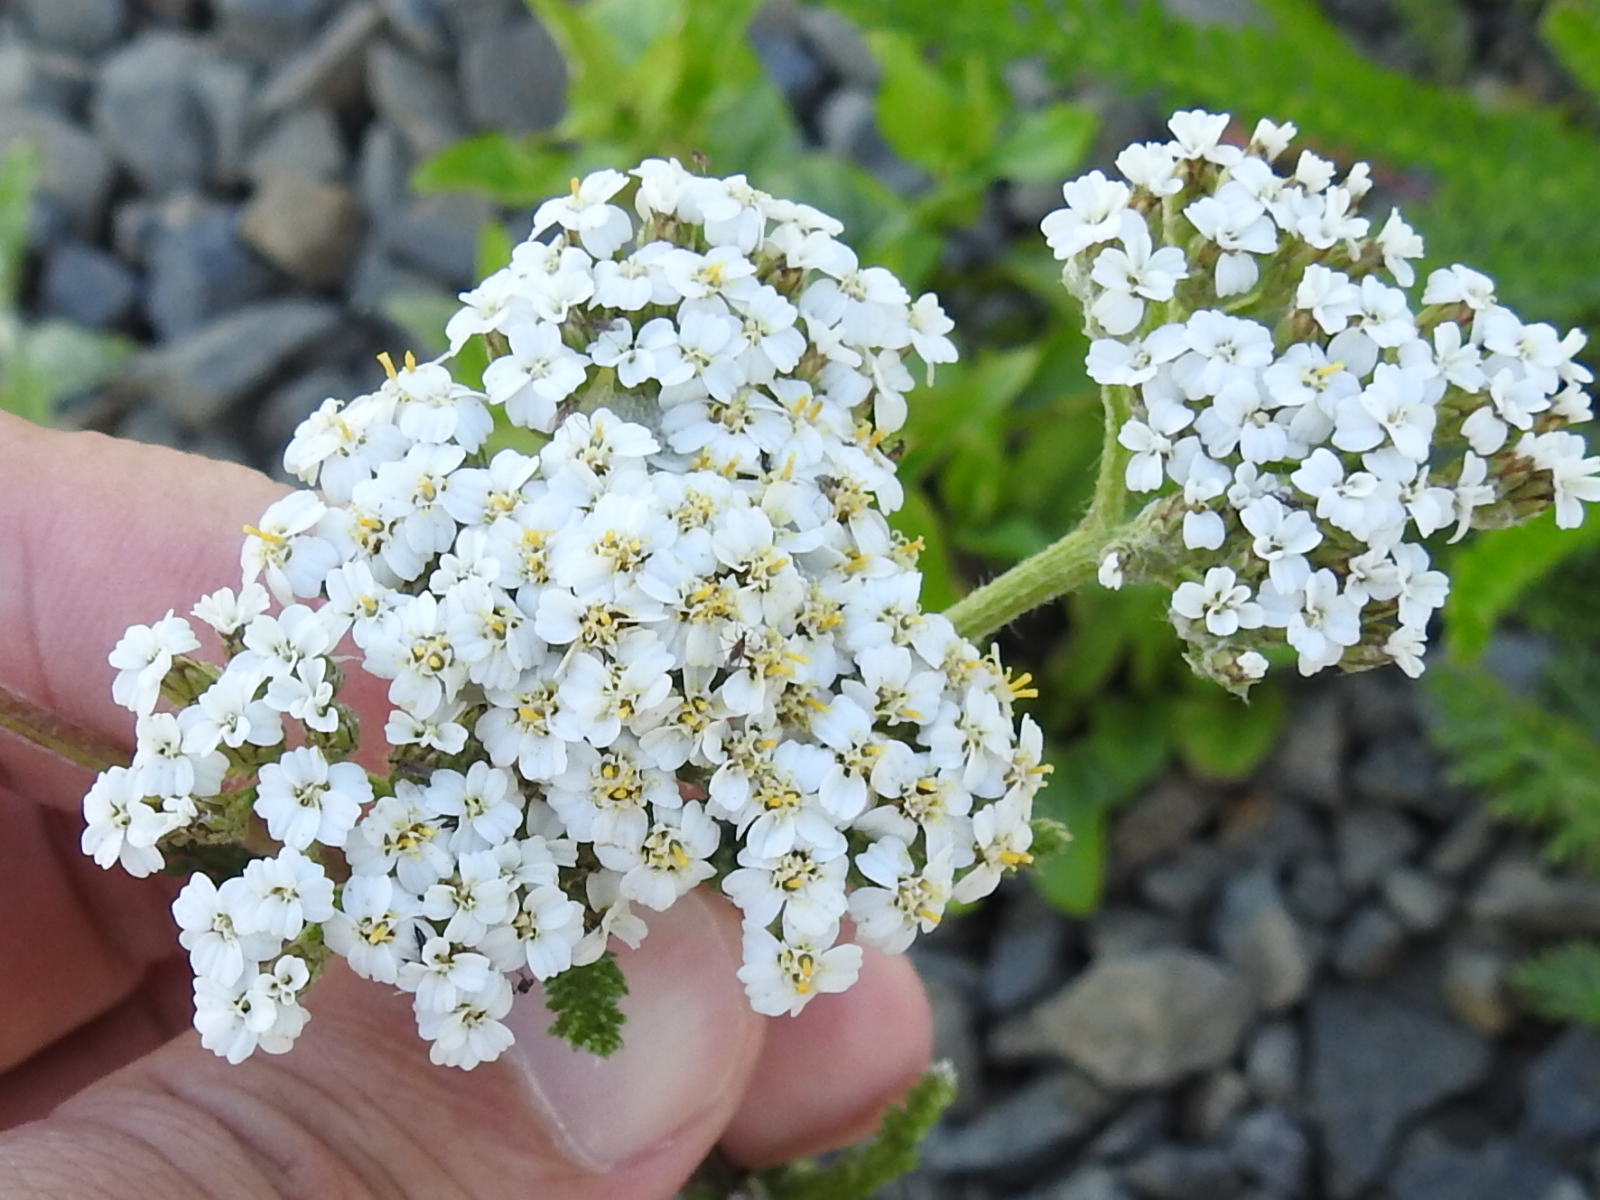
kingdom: Plantae
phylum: Tracheophyta
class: Magnoliopsida
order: Asterales
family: Asteraceae
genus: Achillea
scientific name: Achillea millefolium
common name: Yarrow
